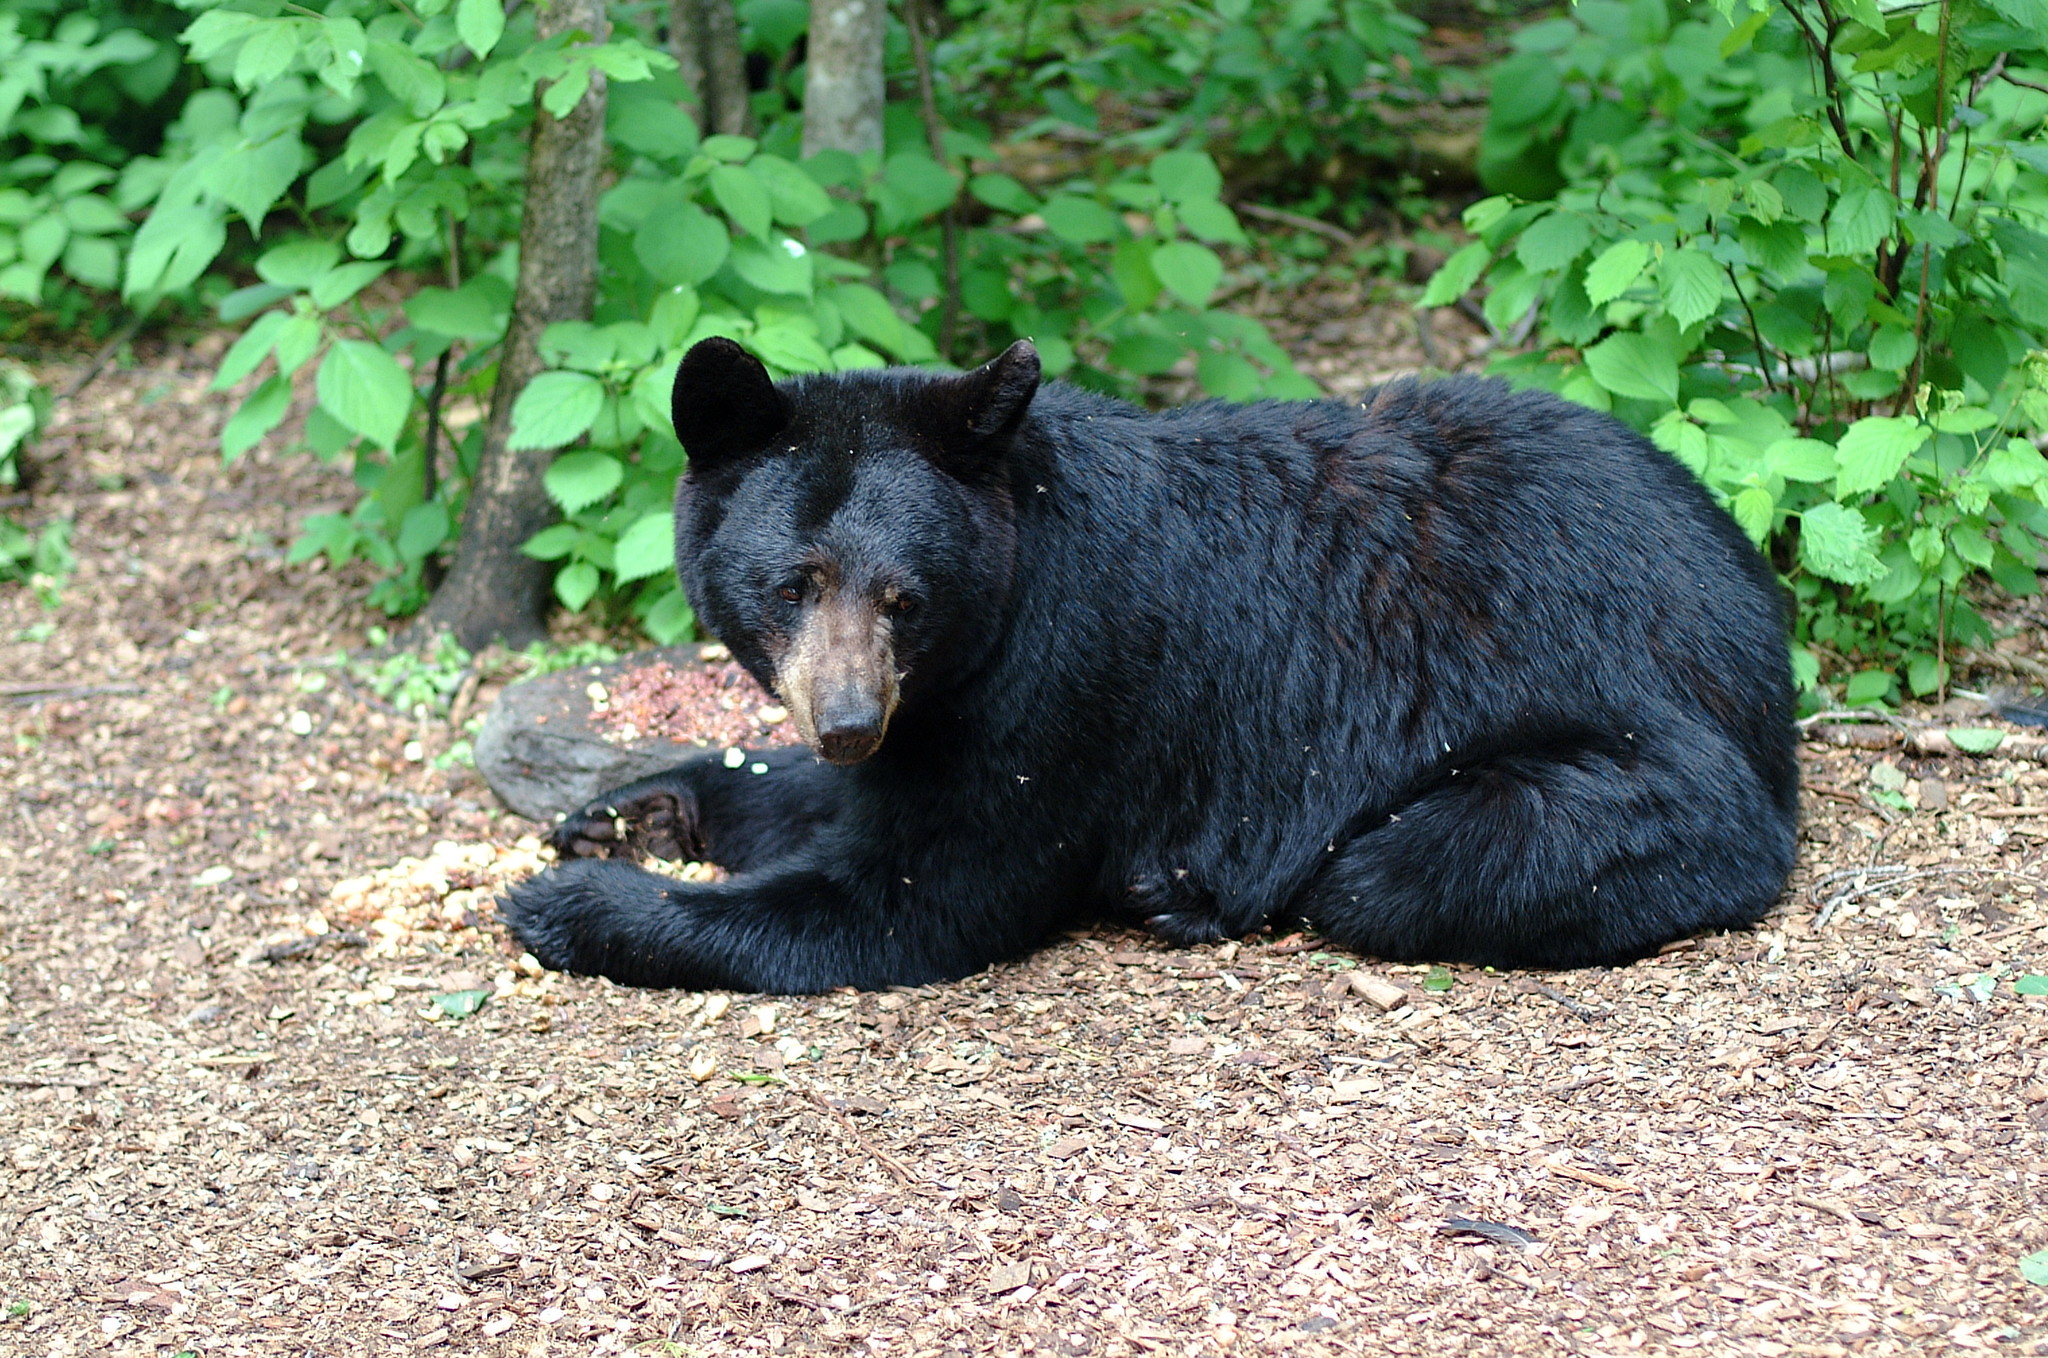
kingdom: Animalia
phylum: Chordata
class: Mammalia
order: Carnivora
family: Ursidae
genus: Ursus
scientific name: Ursus americanus
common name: American black bear
